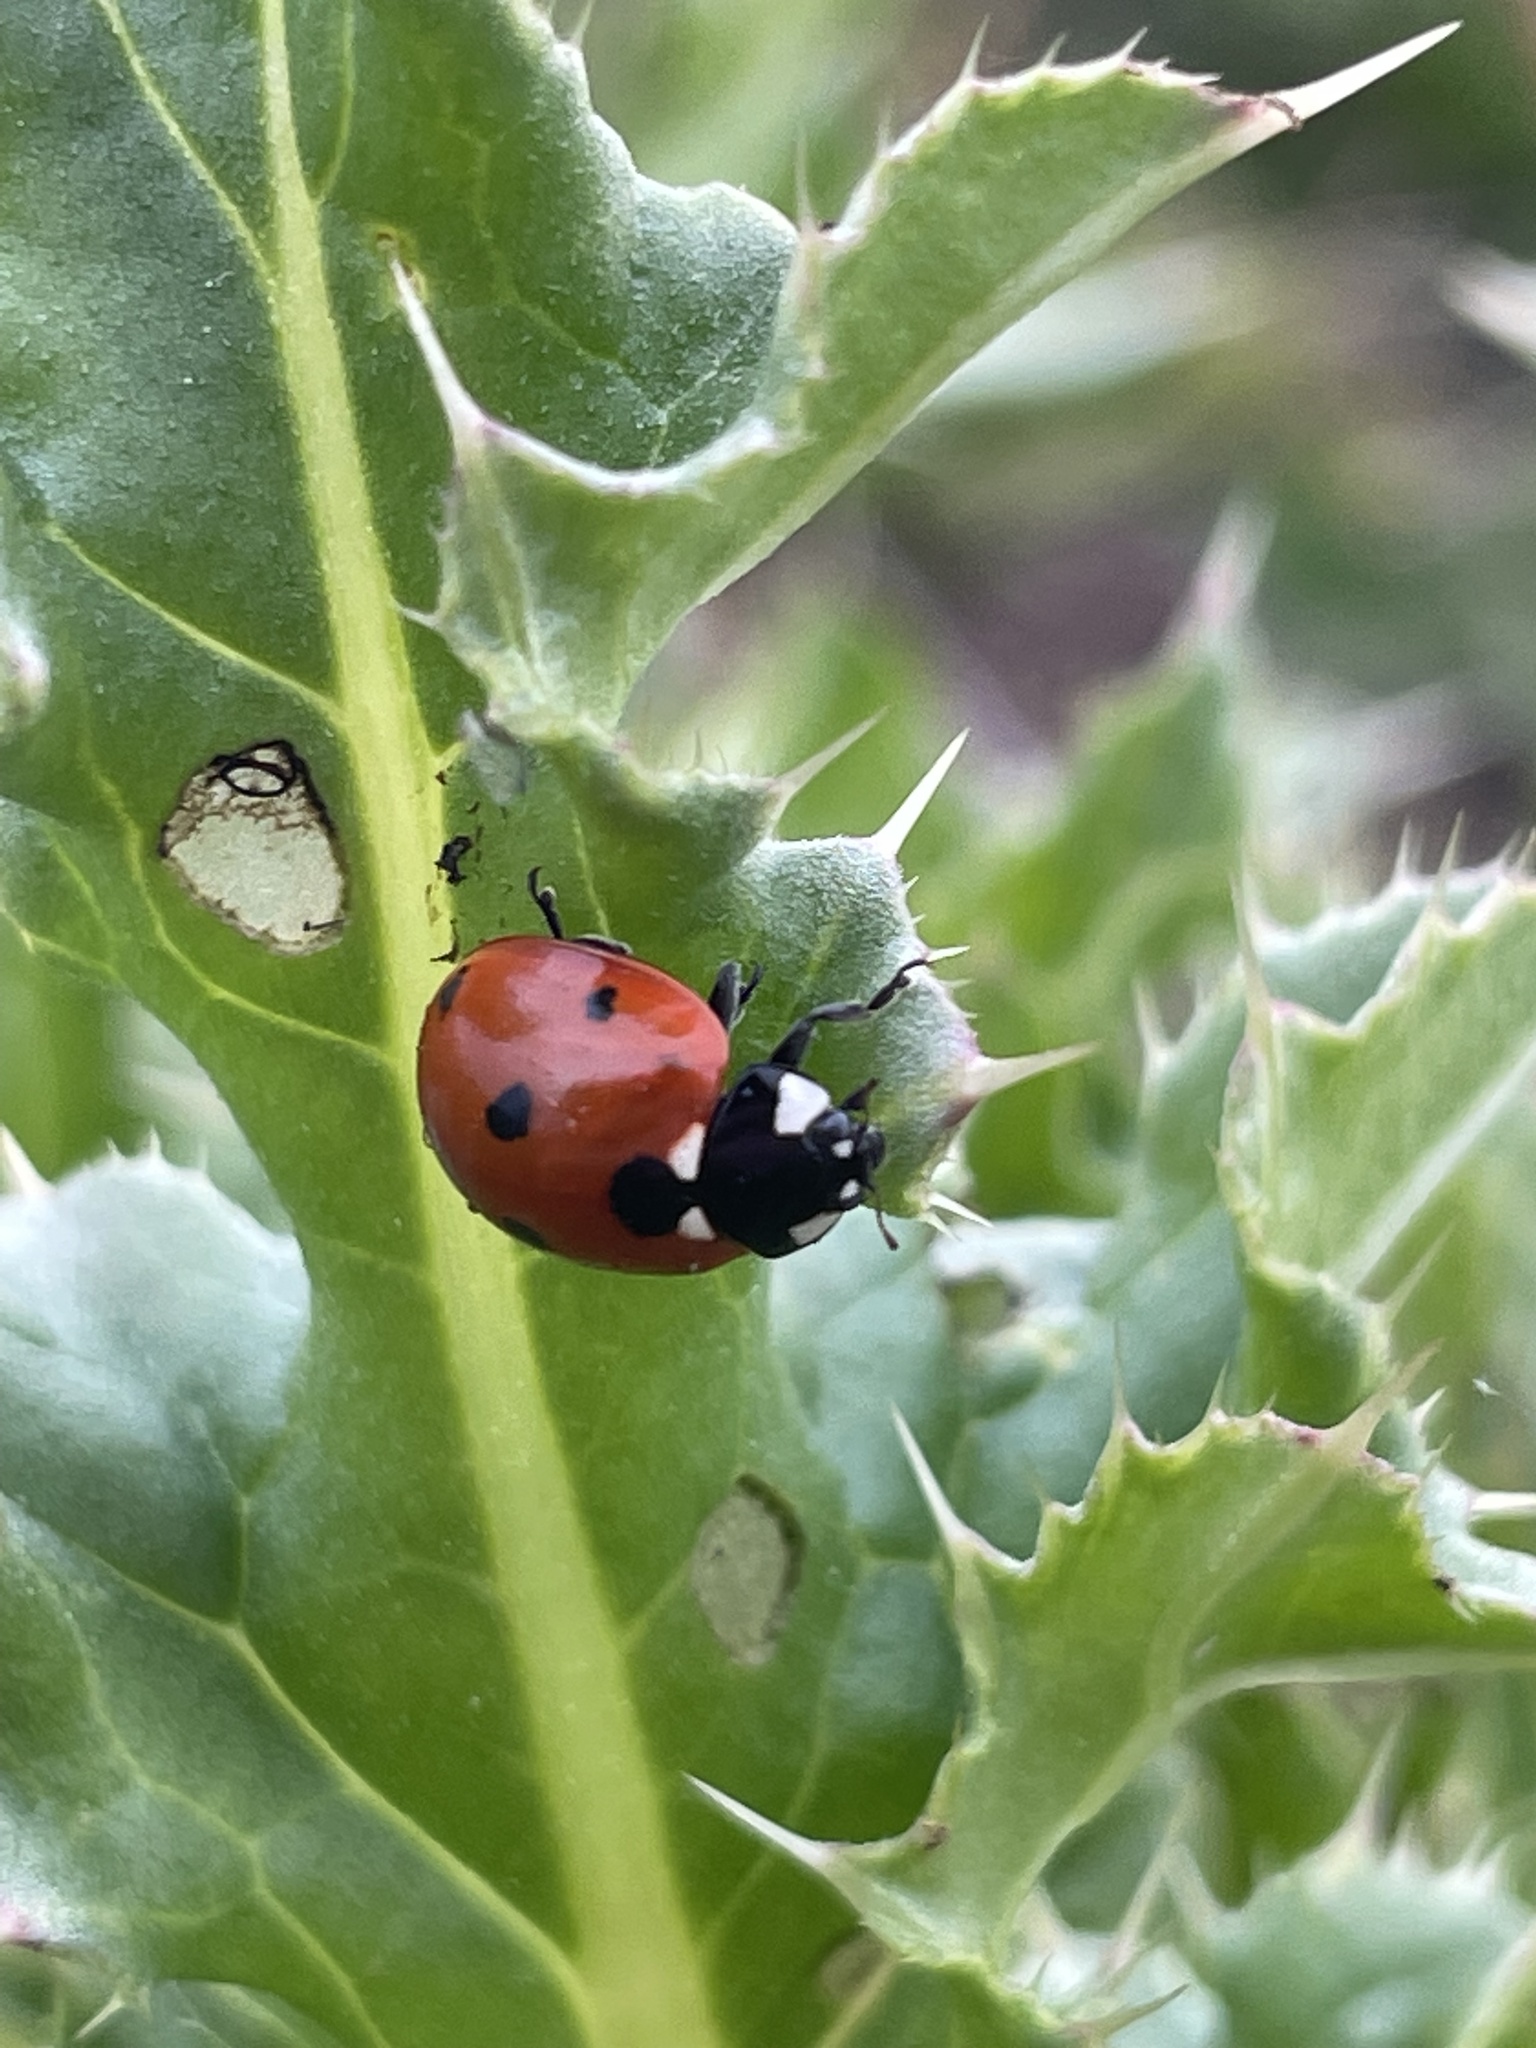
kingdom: Animalia
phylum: Arthropoda
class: Insecta
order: Coleoptera
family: Coccinellidae
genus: Coccinella
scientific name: Coccinella septempunctata
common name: Sevenspotted lady beetle
